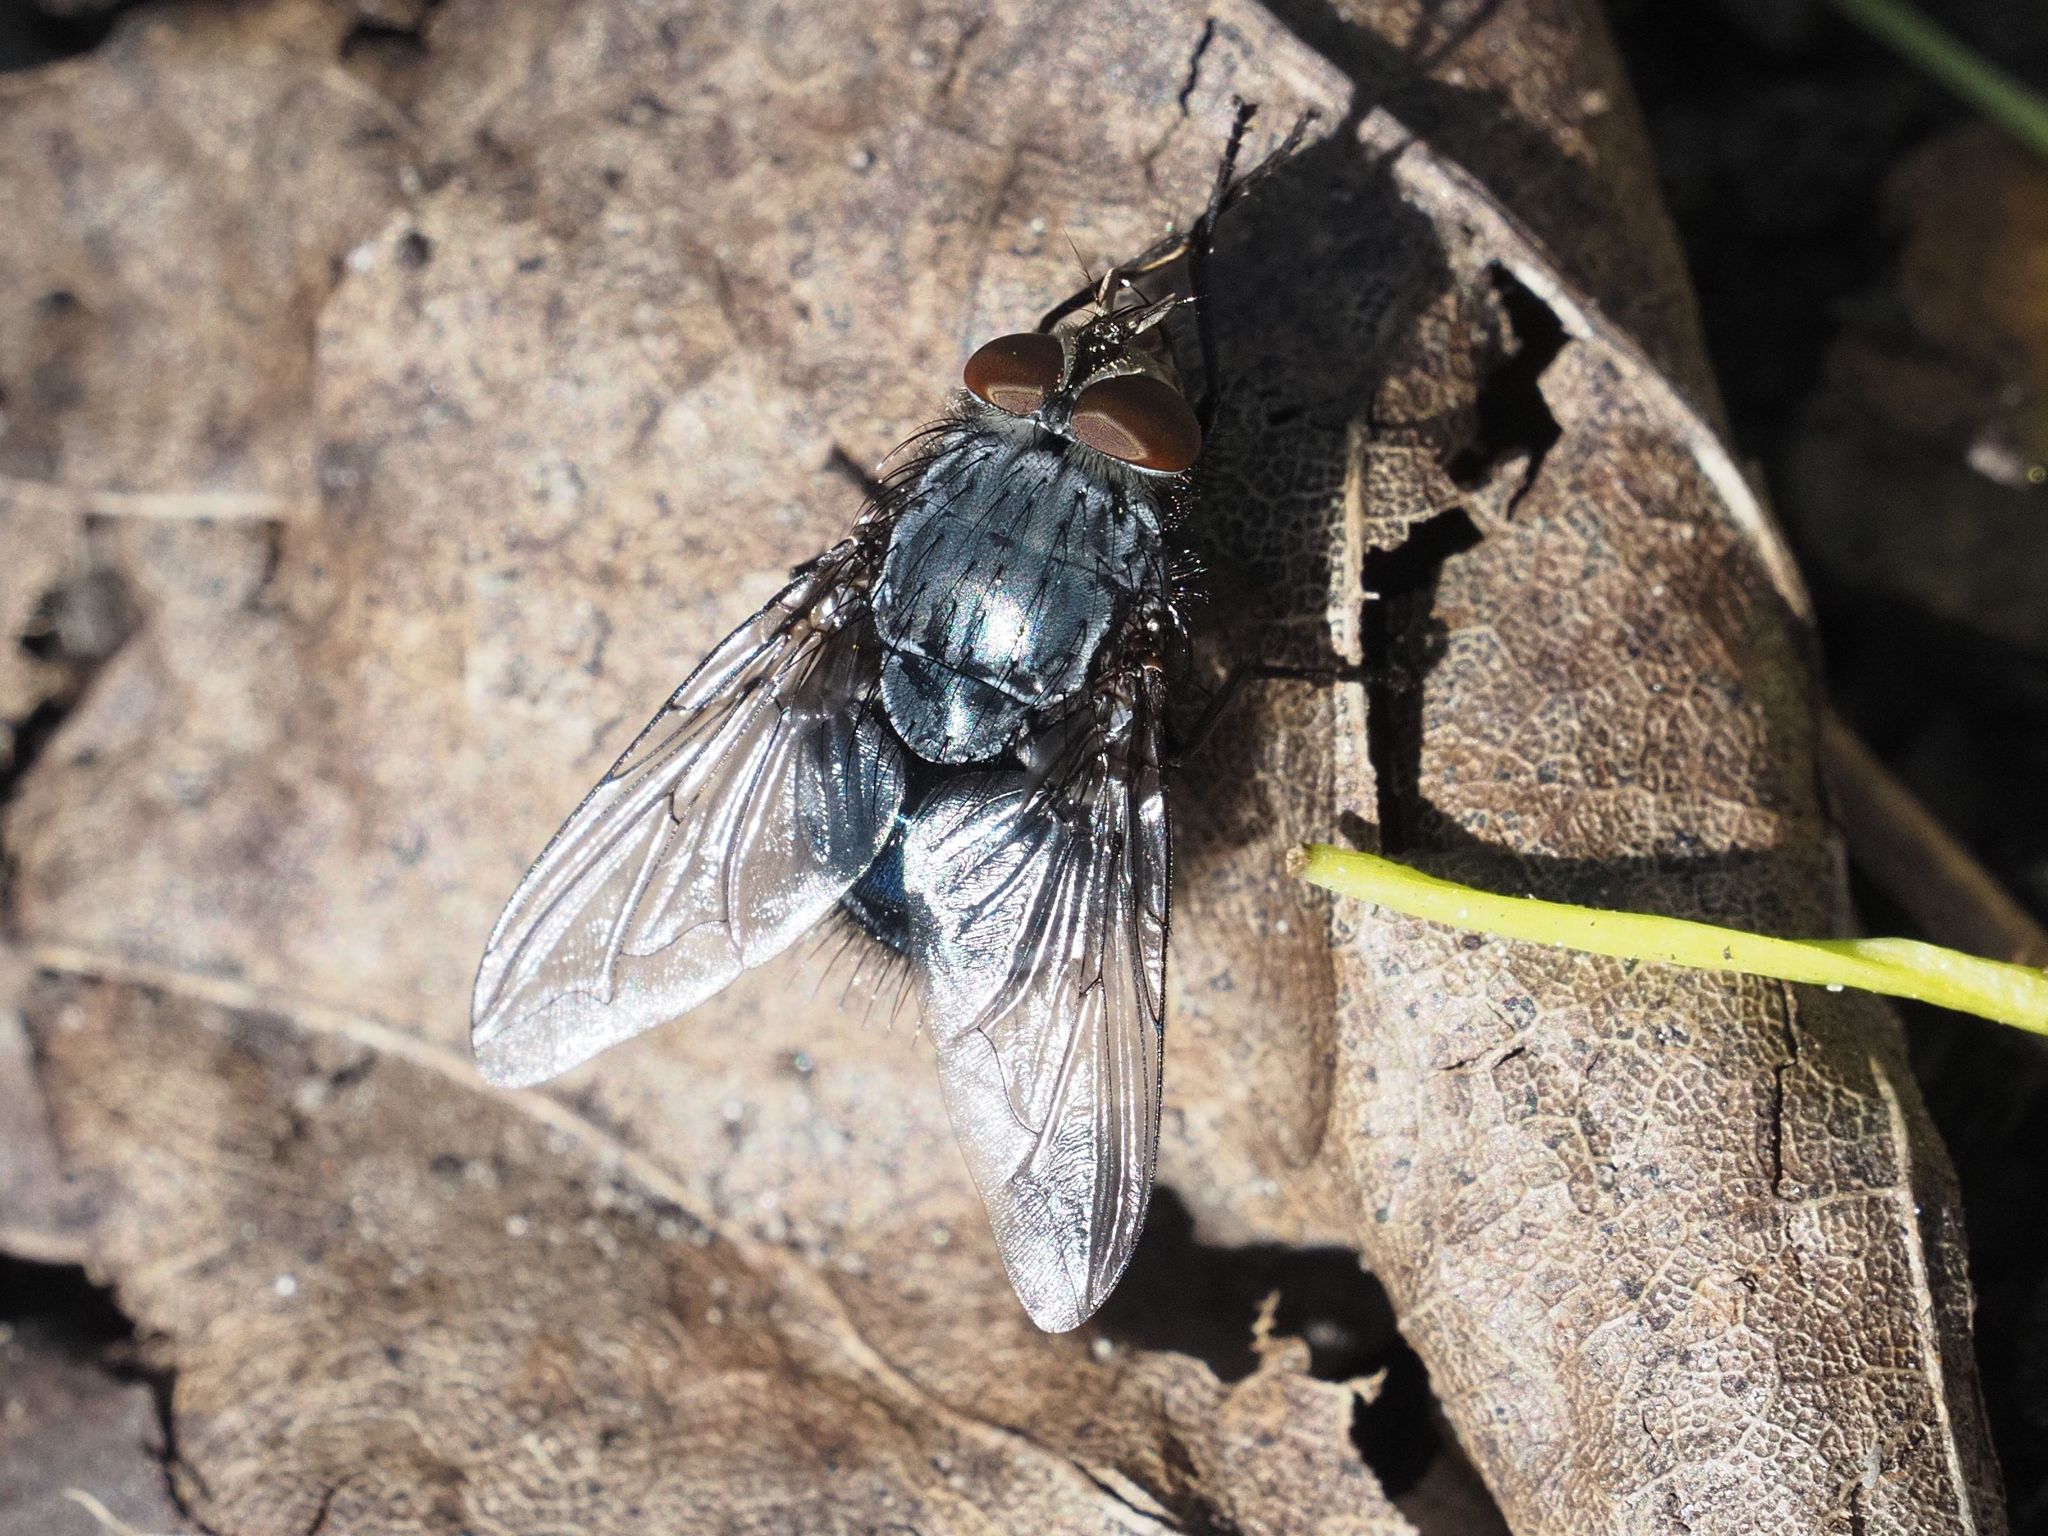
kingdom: Animalia
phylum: Arthropoda
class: Insecta
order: Diptera
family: Calliphoridae
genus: Calliphora
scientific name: Calliphora vicina
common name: Common blow flie
